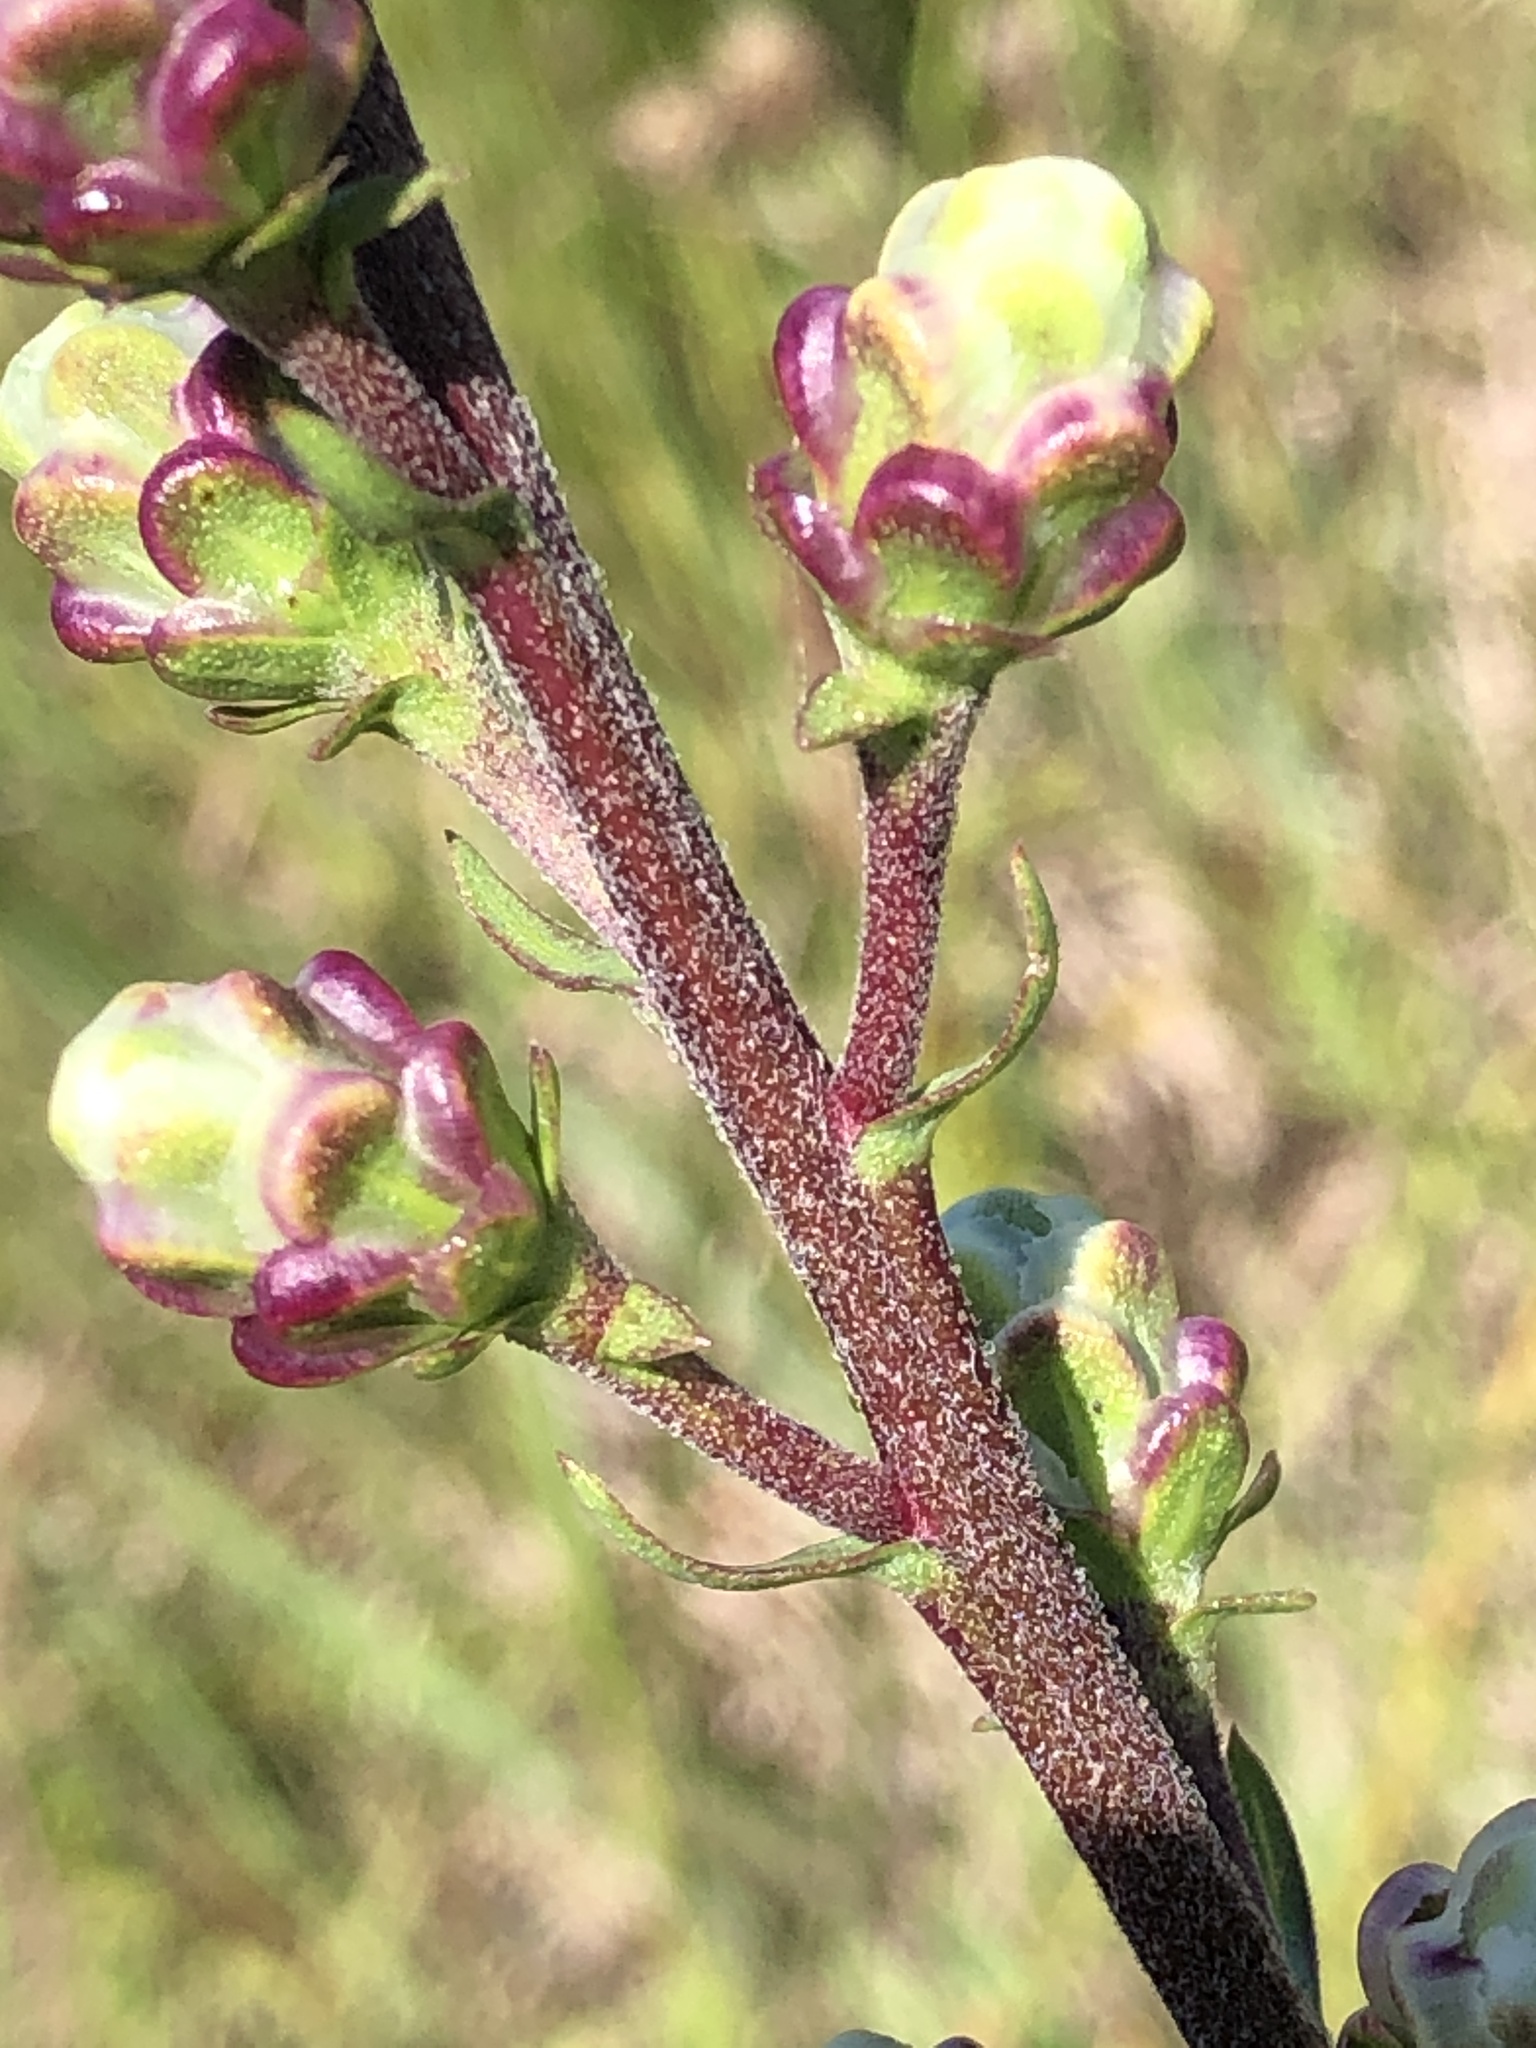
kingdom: Plantae
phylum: Tracheophyta
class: Magnoliopsida
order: Asterales
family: Asteraceae
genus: Liatris
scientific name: Liatris ligulistylis
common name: Northern plains gayfeather
